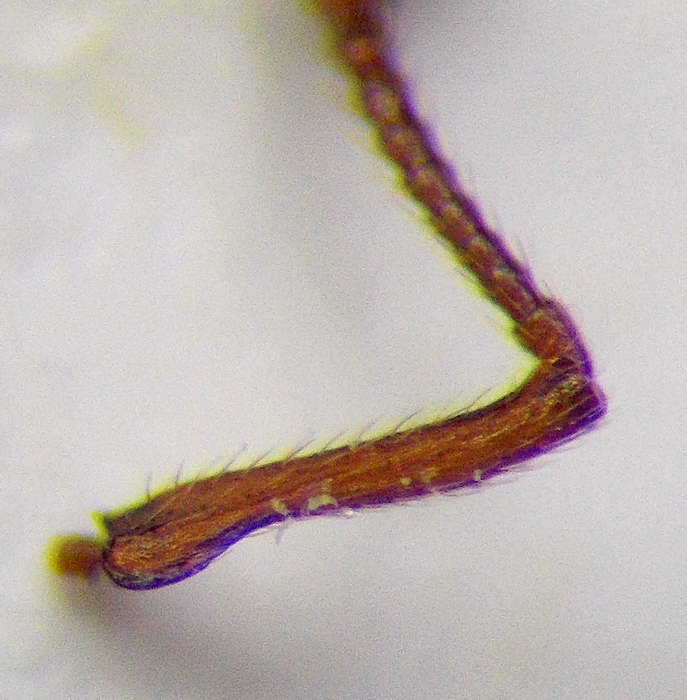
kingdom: Animalia
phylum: Arthropoda
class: Insecta
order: Hymenoptera
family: Formicidae
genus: Myrmica
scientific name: Myrmica sabuleti
